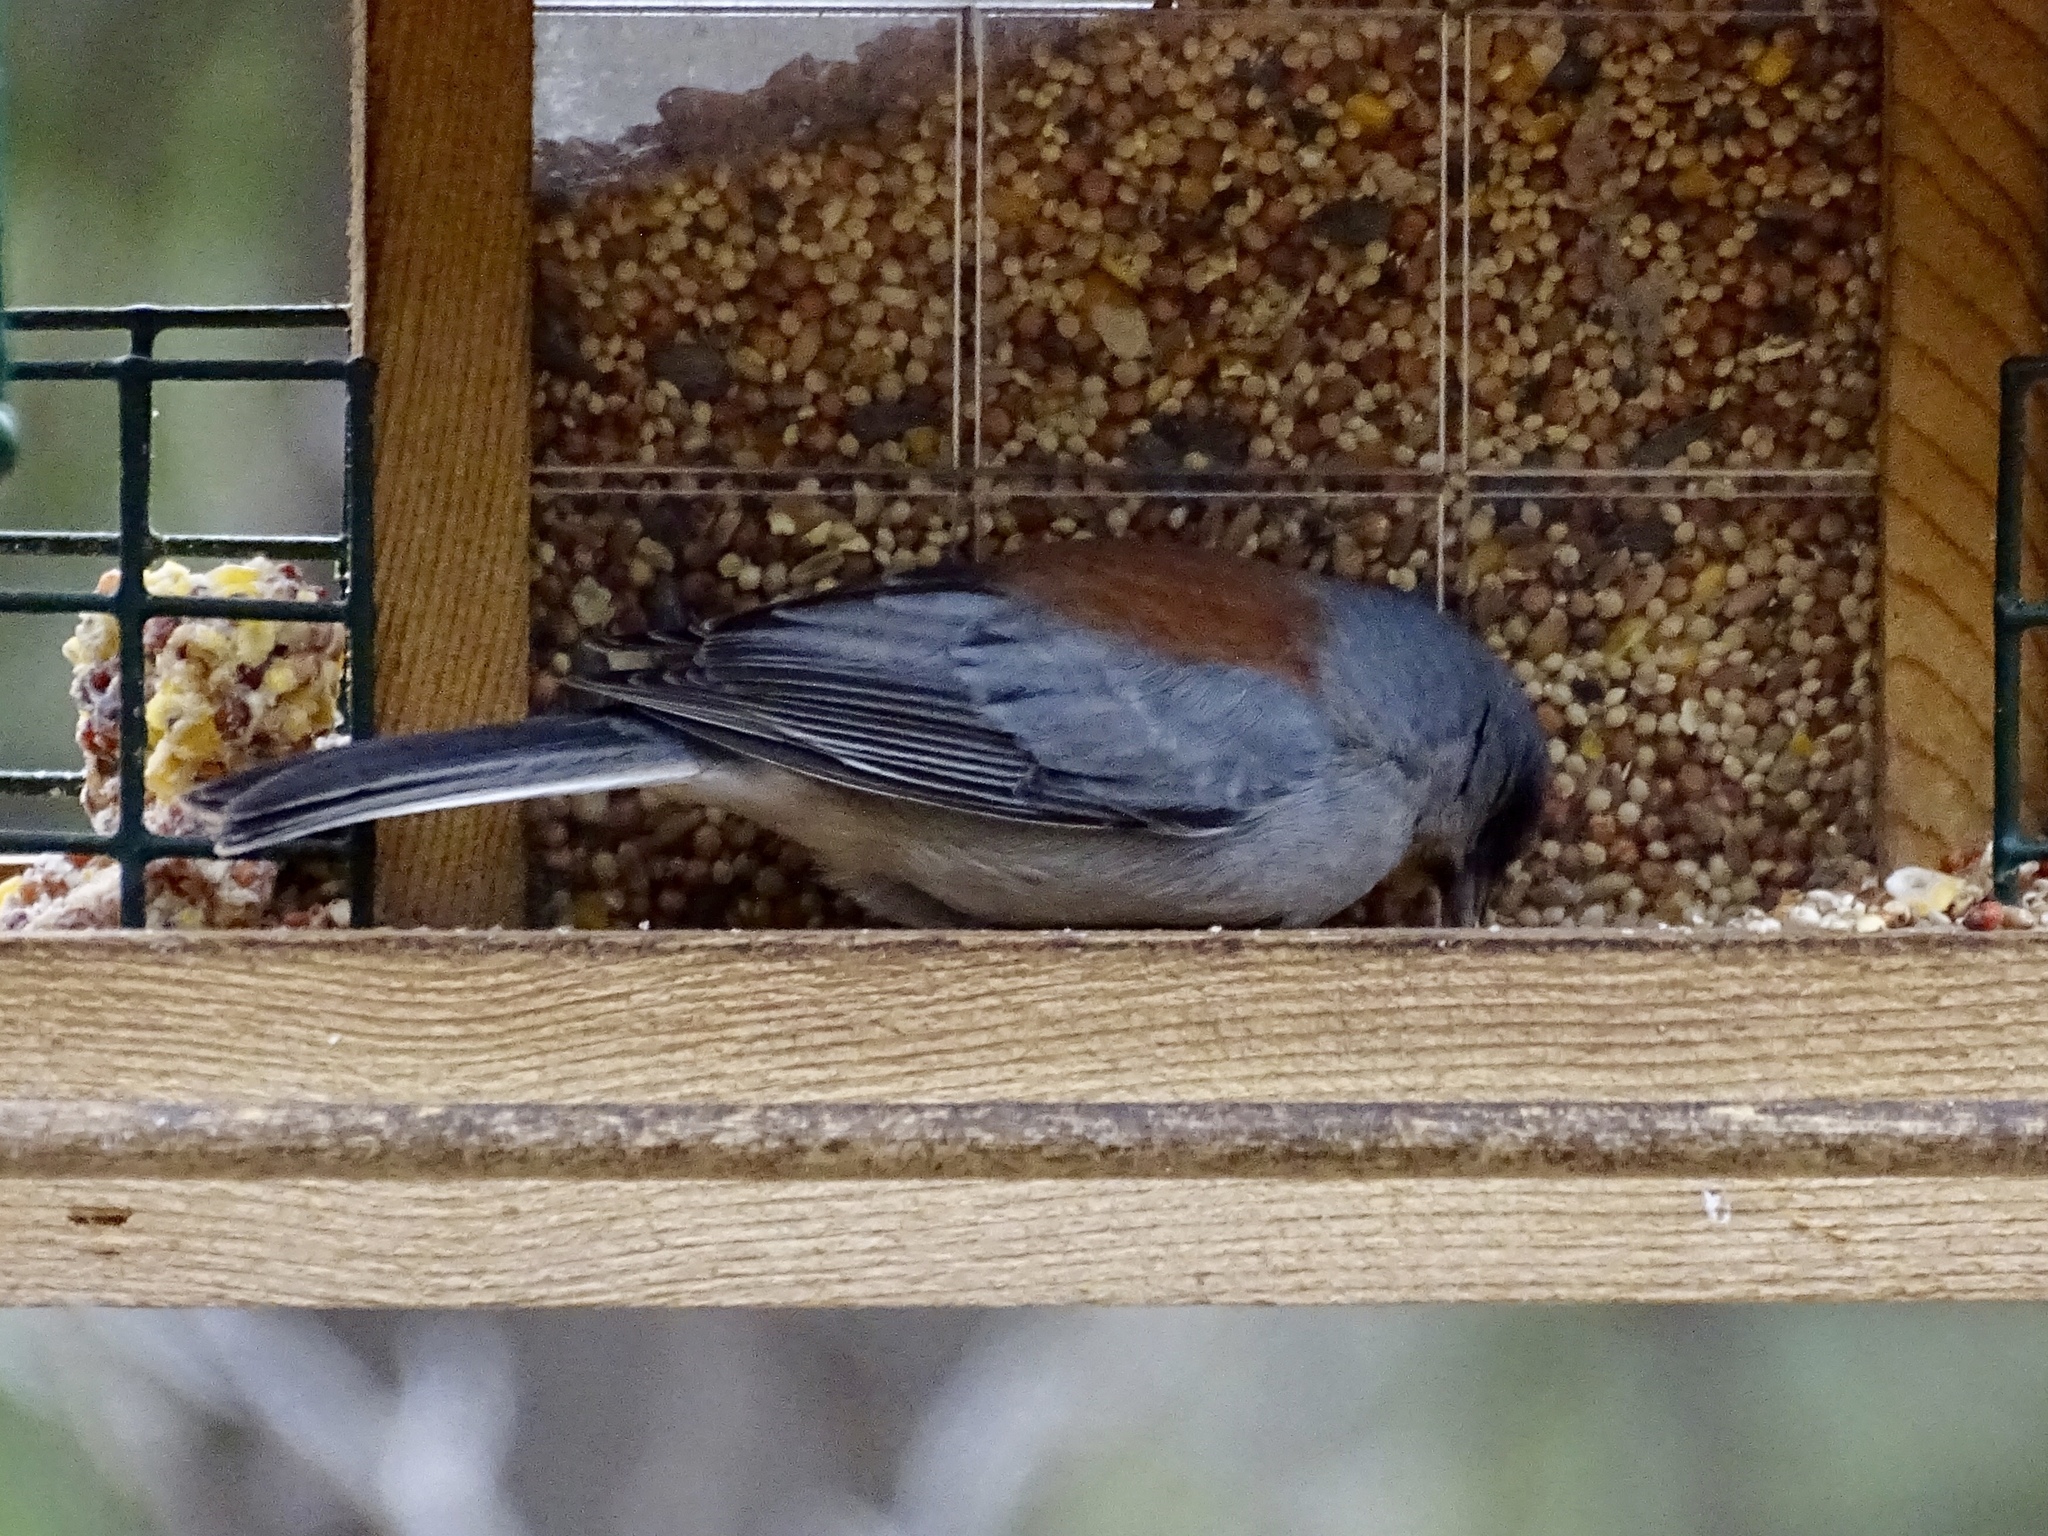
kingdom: Animalia
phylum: Chordata
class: Aves
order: Passeriformes
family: Passerellidae
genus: Junco
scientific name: Junco hyemalis
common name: Dark-eyed junco
